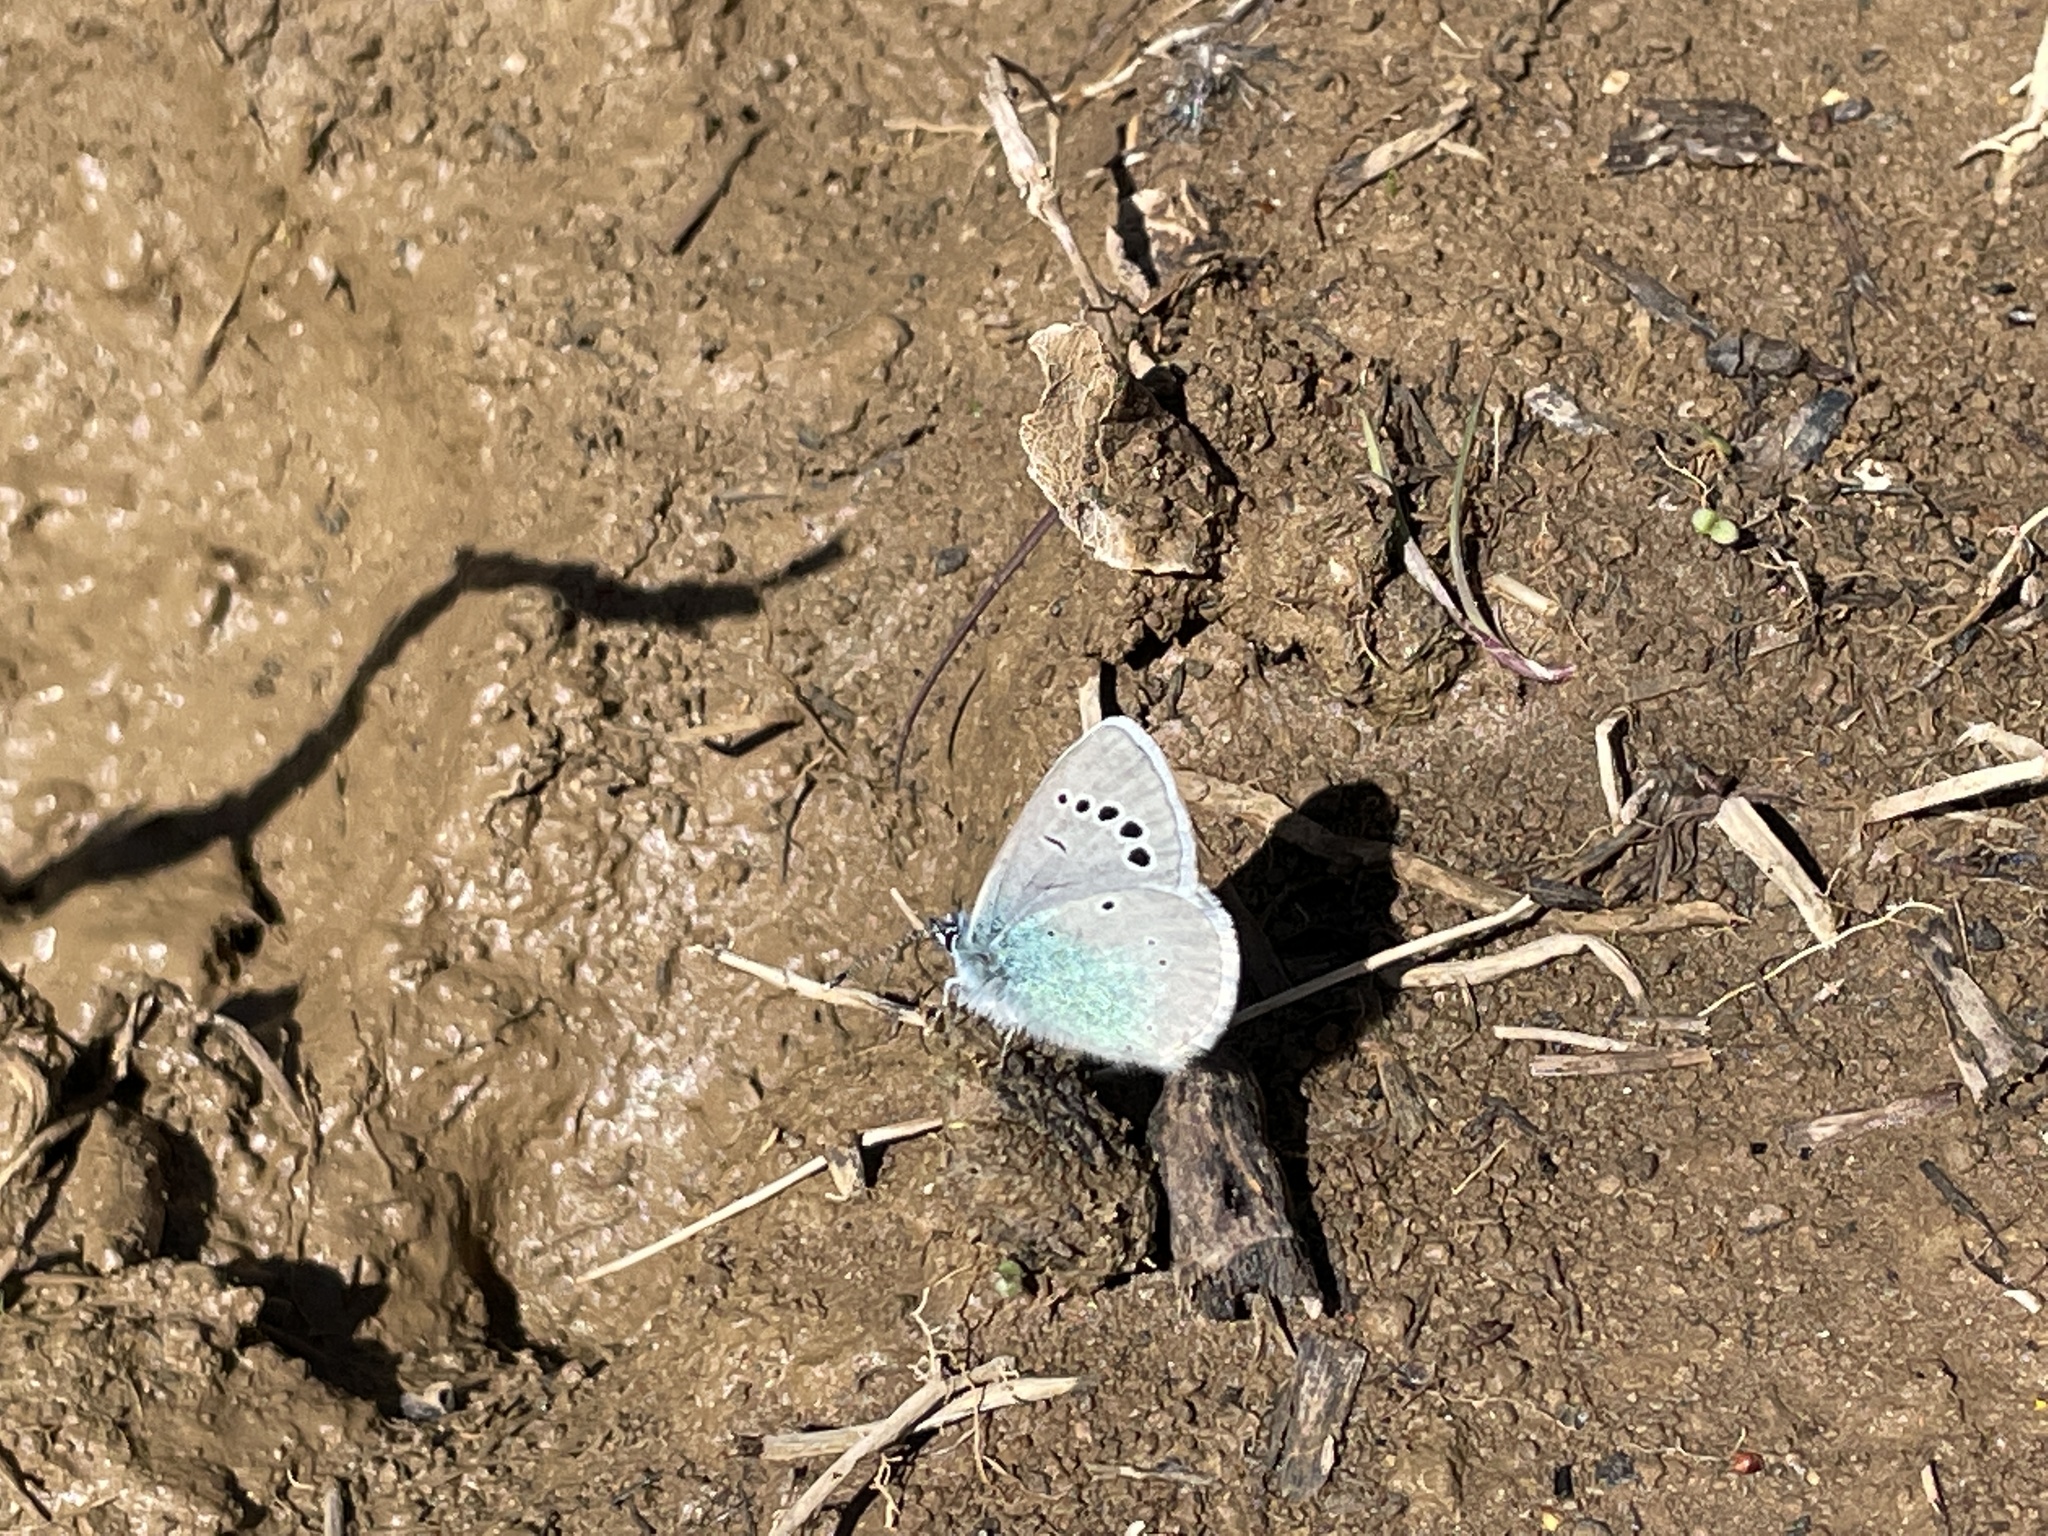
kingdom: Animalia
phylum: Arthropoda
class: Insecta
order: Lepidoptera
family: Lycaenidae
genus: Glaucopsyche
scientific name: Glaucopsyche alexis
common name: Green-underside blue
